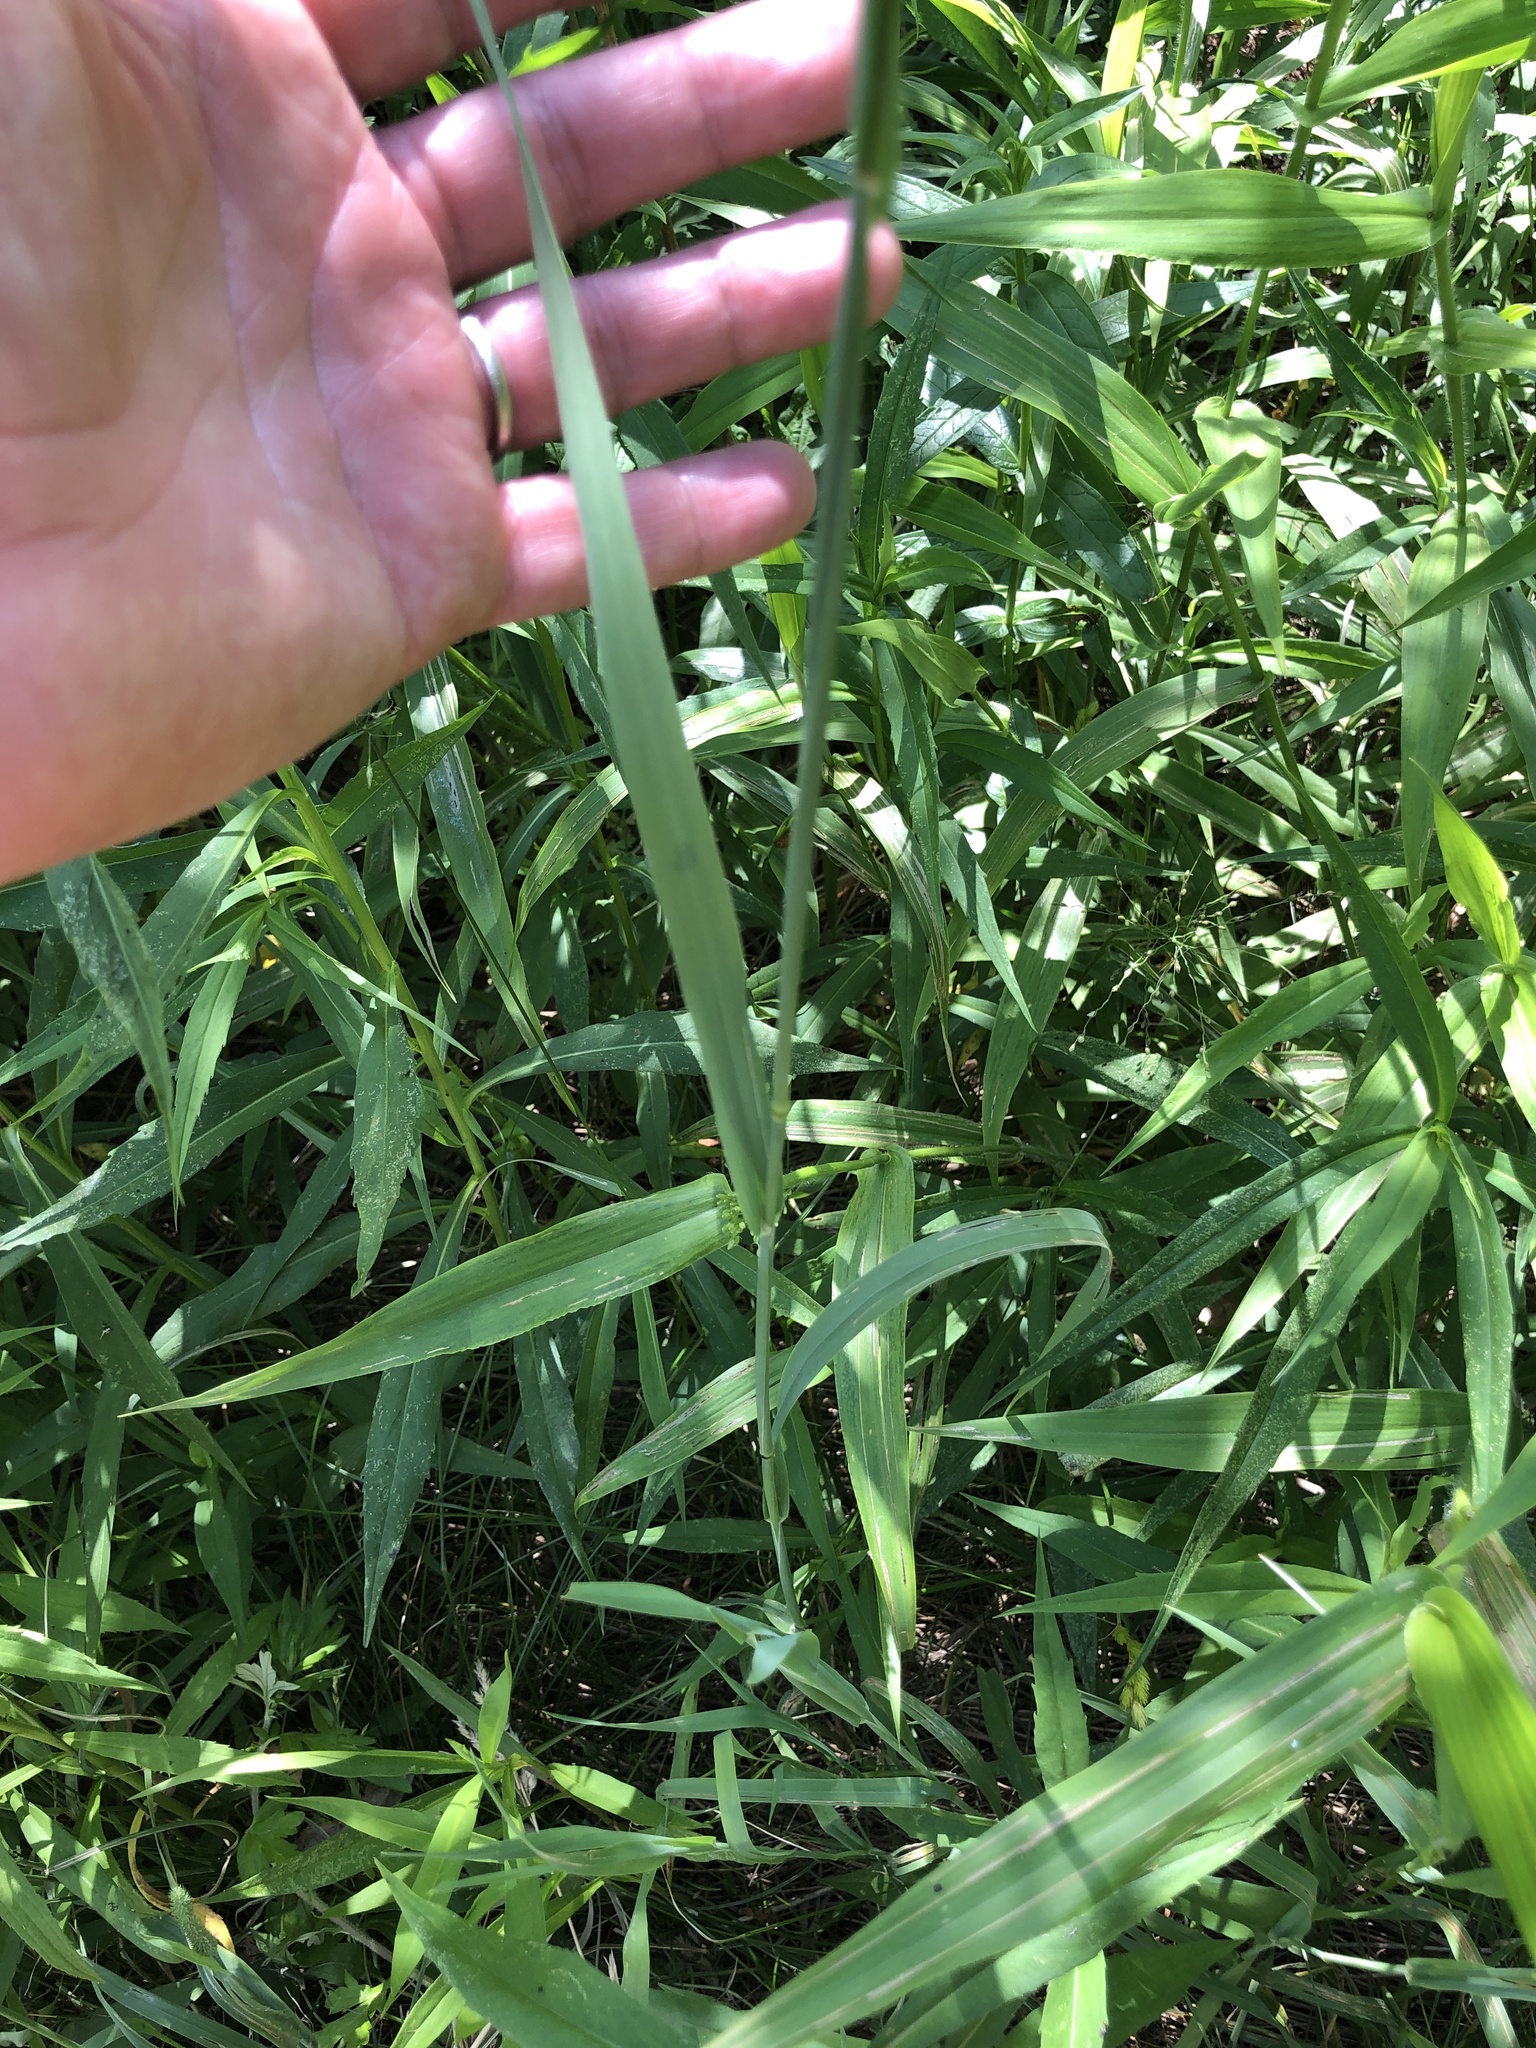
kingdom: Plantae
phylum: Tracheophyta
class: Liliopsida
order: Poales
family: Poaceae
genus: Phleum
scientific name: Phleum pratense
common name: Timothy grass
